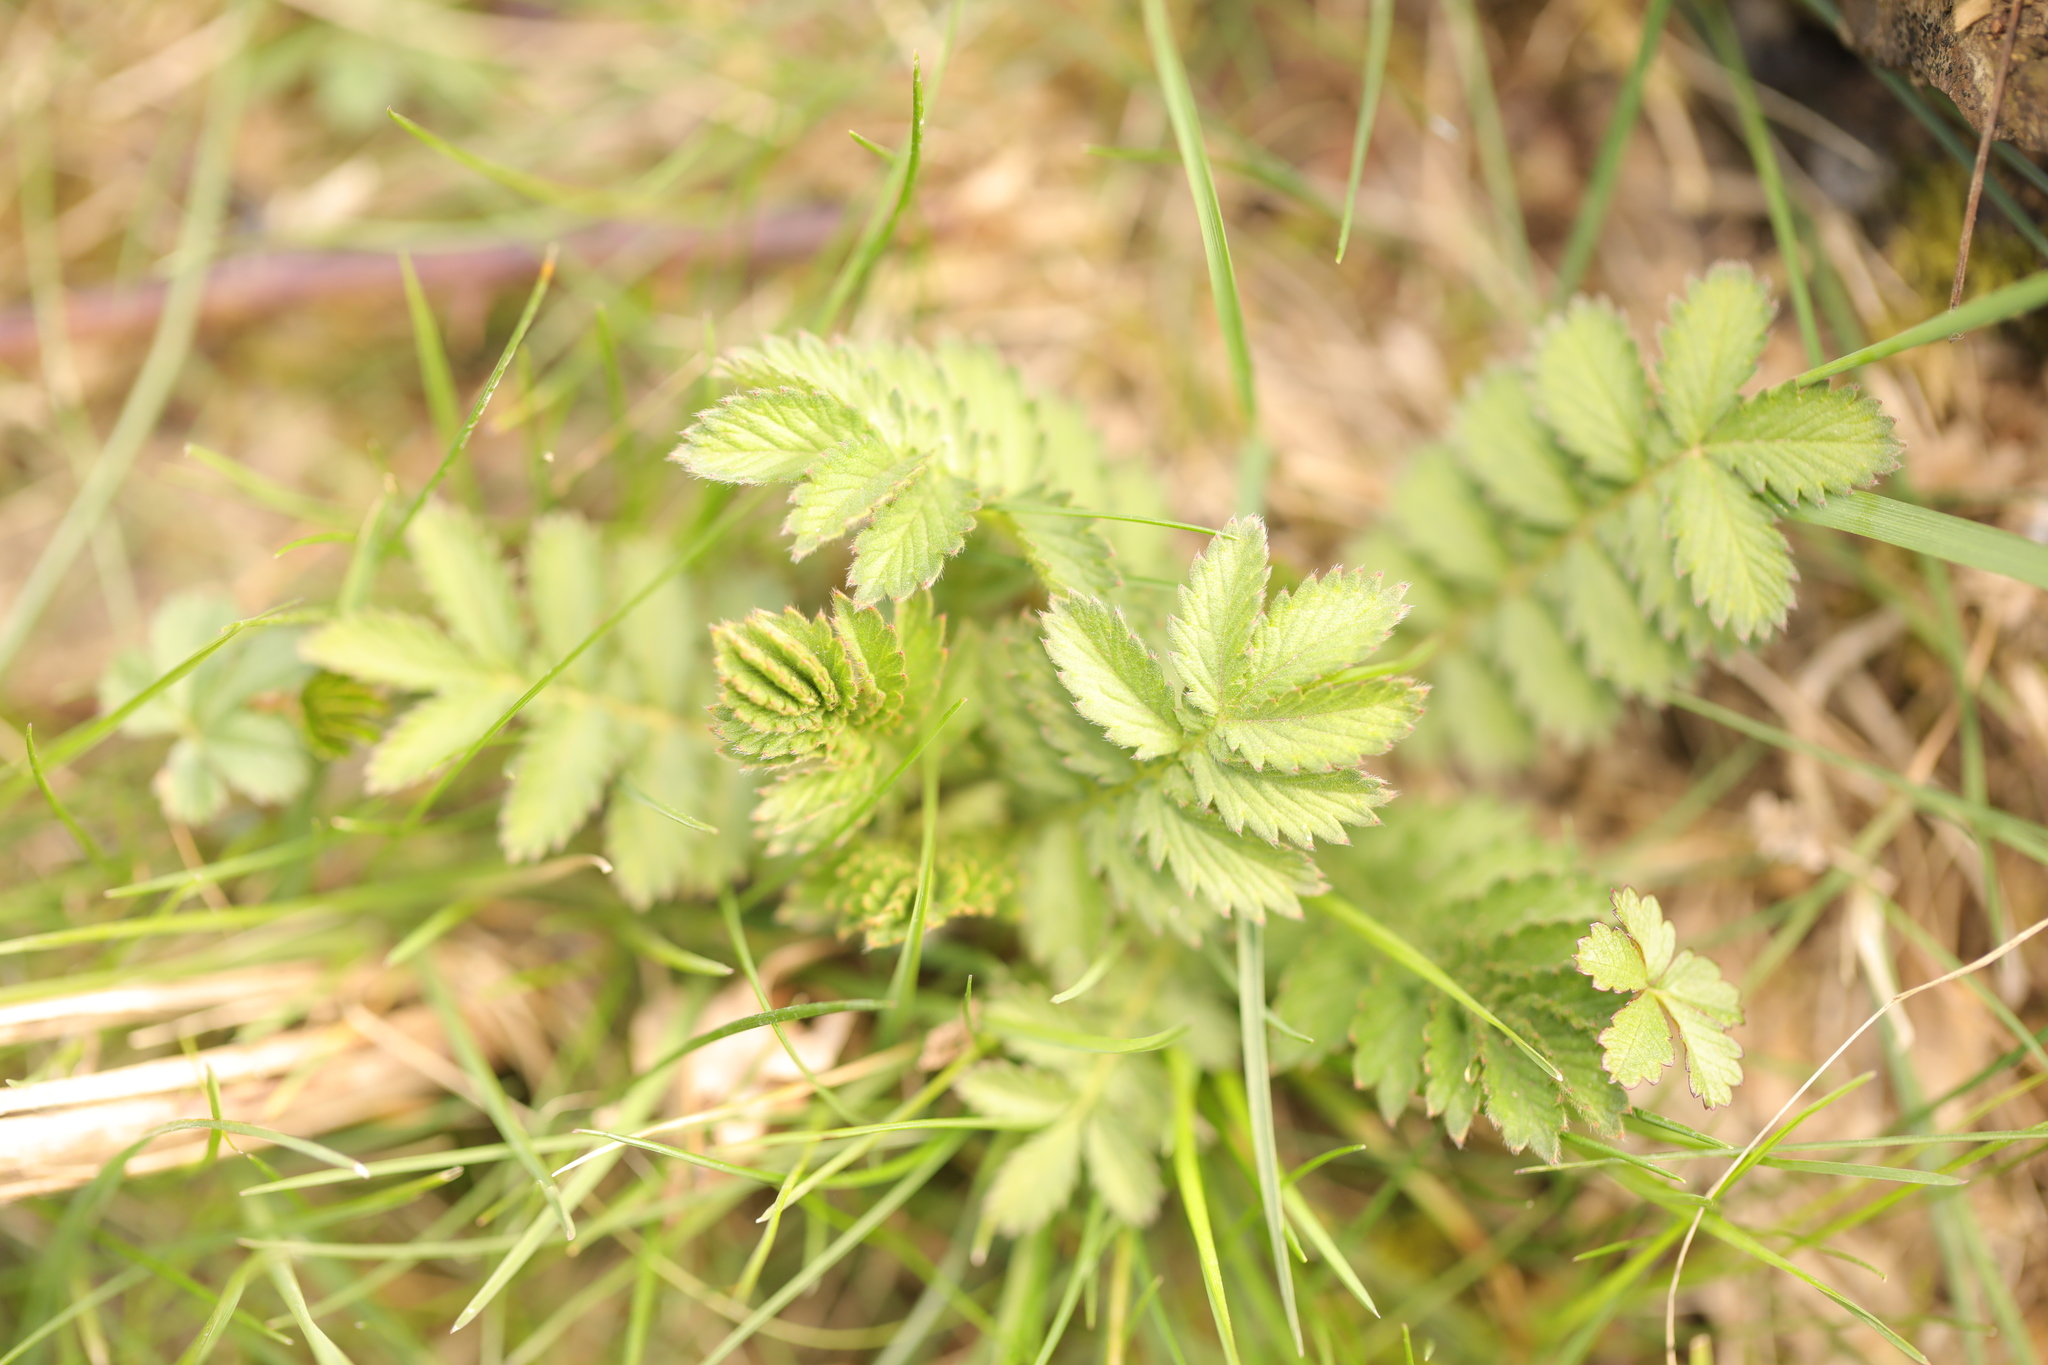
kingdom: Plantae
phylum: Tracheophyta
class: Magnoliopsida
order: Rosales
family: Rosaceae
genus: Argentina
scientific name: Argentina anserina
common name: Common silverweed
